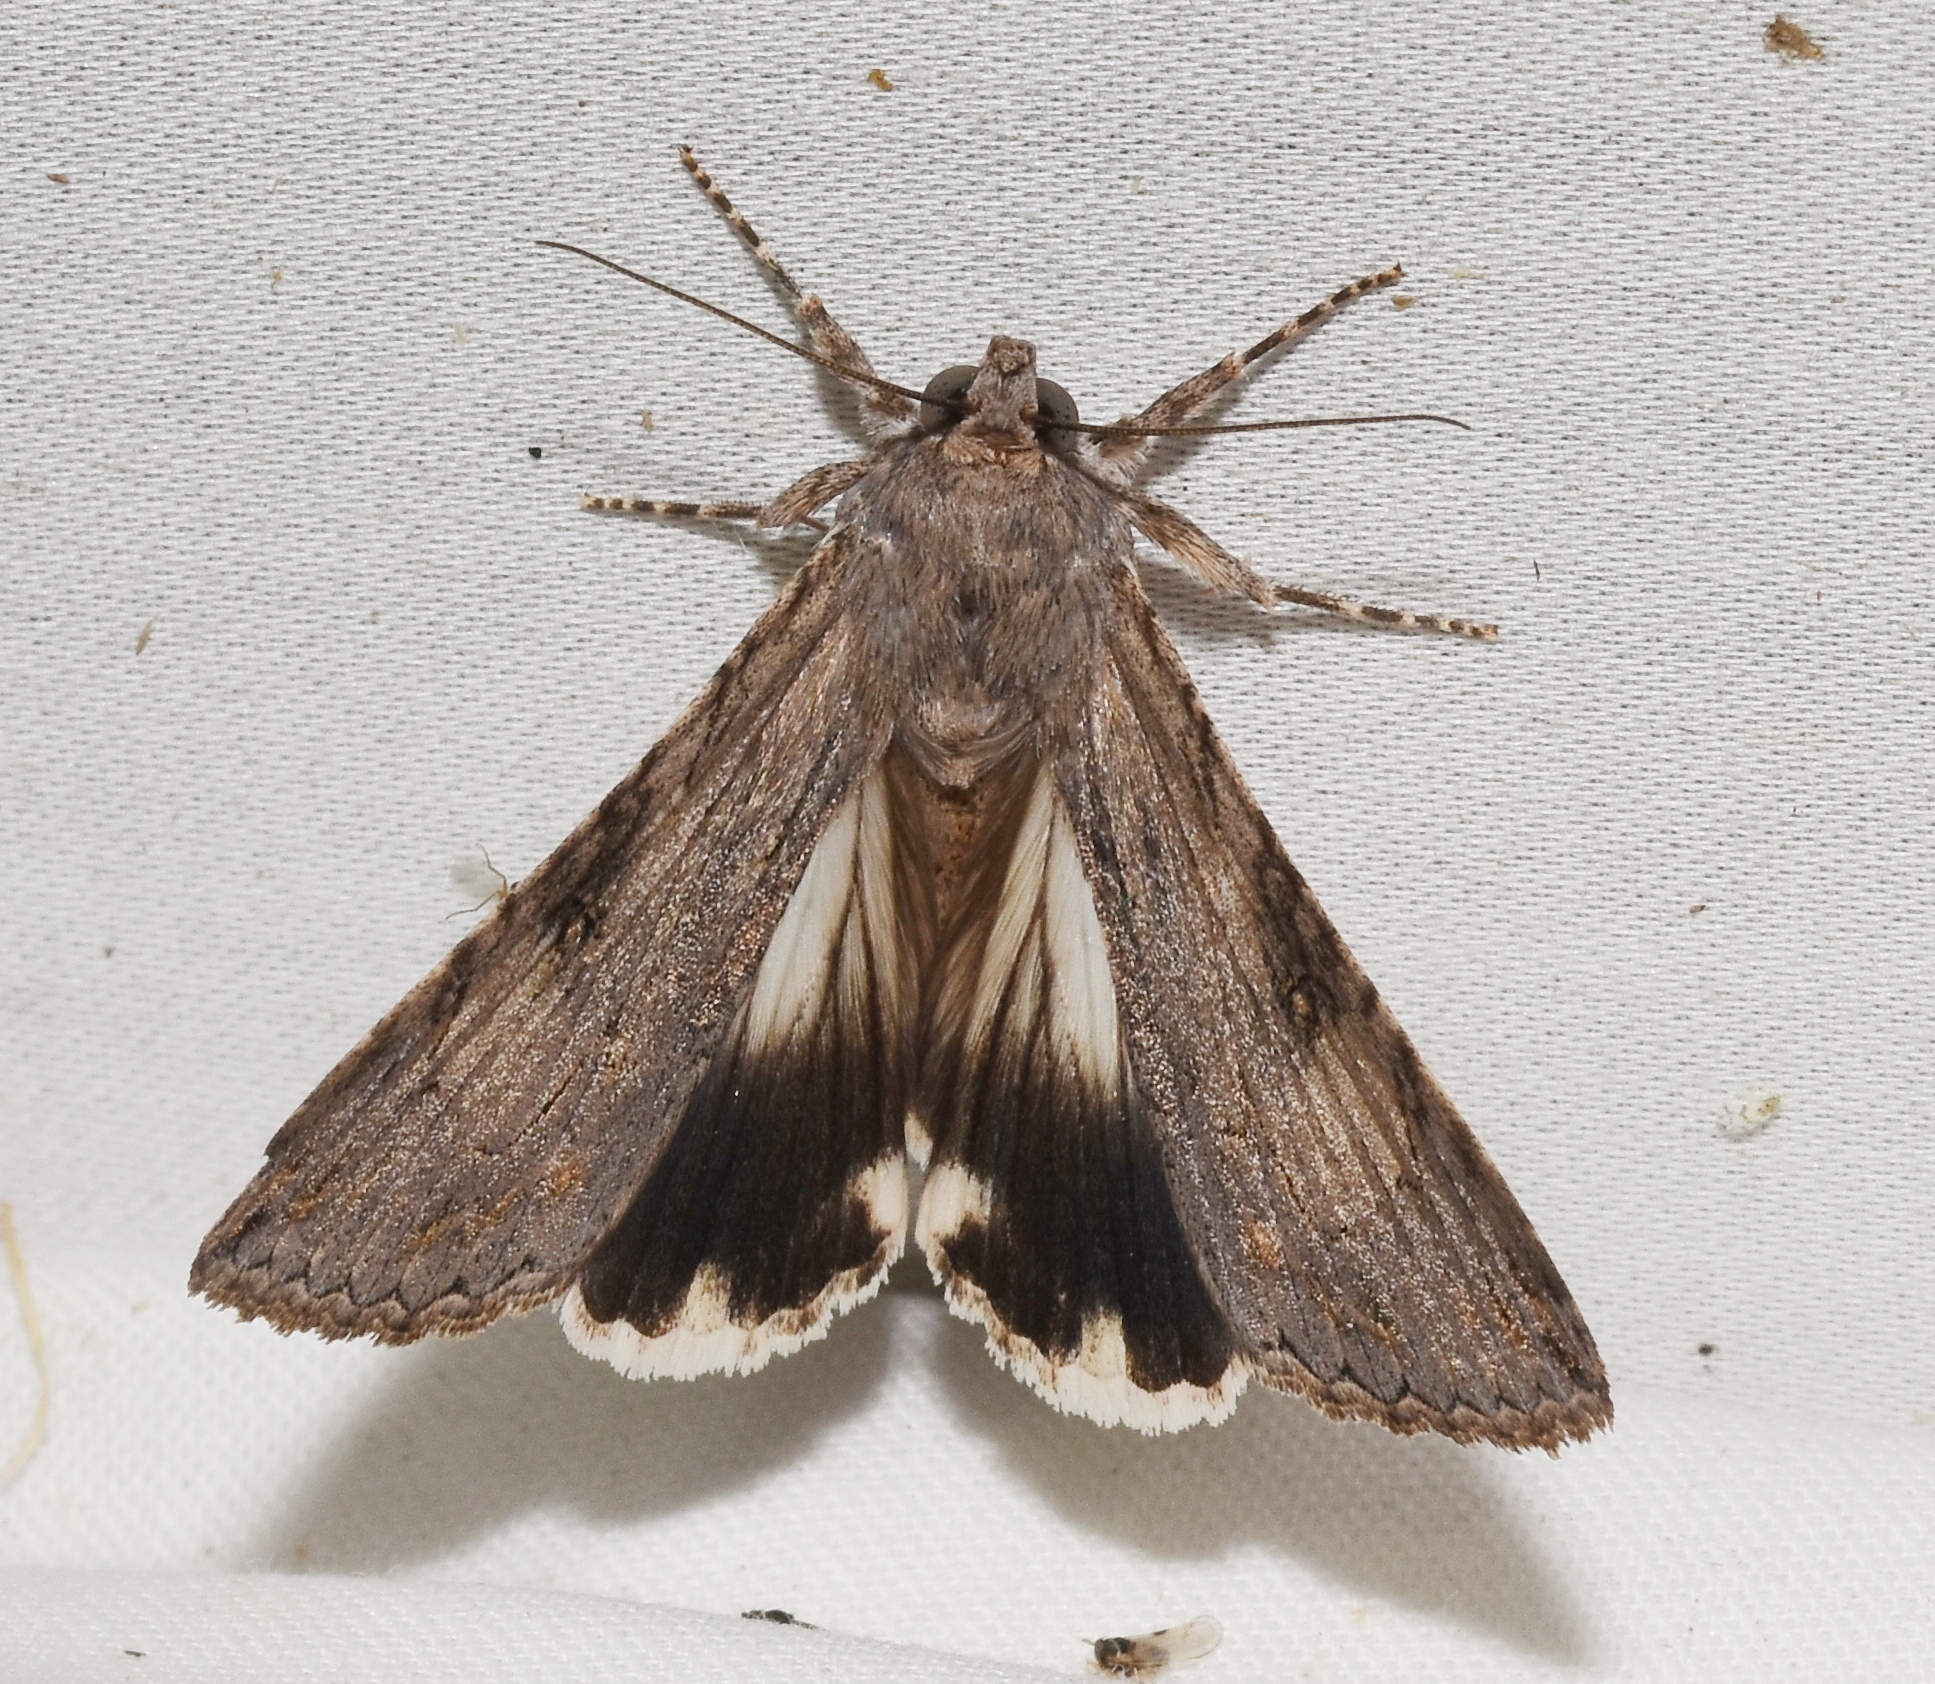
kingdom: Animalia
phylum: Arthropoda
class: Insecta
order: Lepidoptera
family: Erebidae
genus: Melipotis
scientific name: Melipotis jucunda
